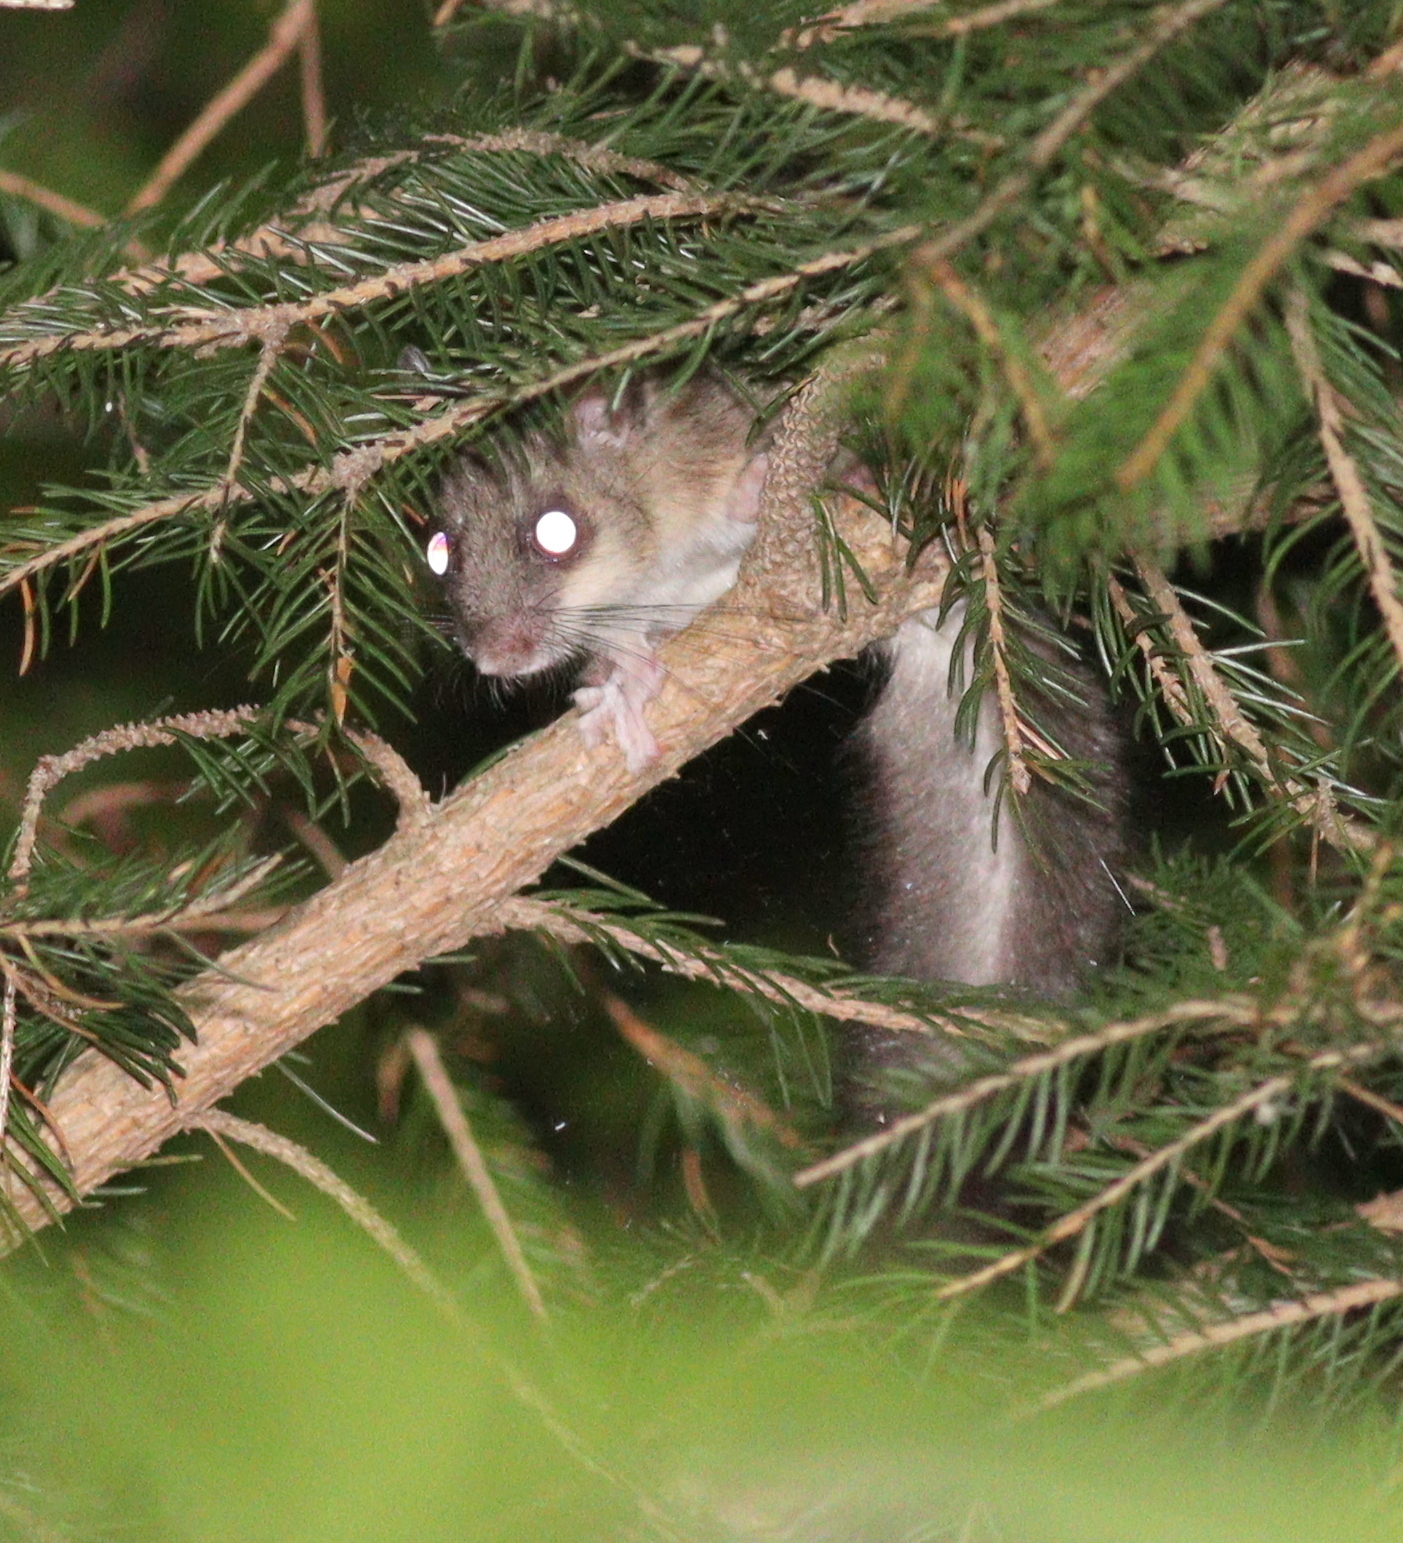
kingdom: Animalia
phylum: Chordata
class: Mammalia
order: Rodentia
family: Gliridae
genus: Glis
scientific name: Glis glis
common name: Fat dormouse
